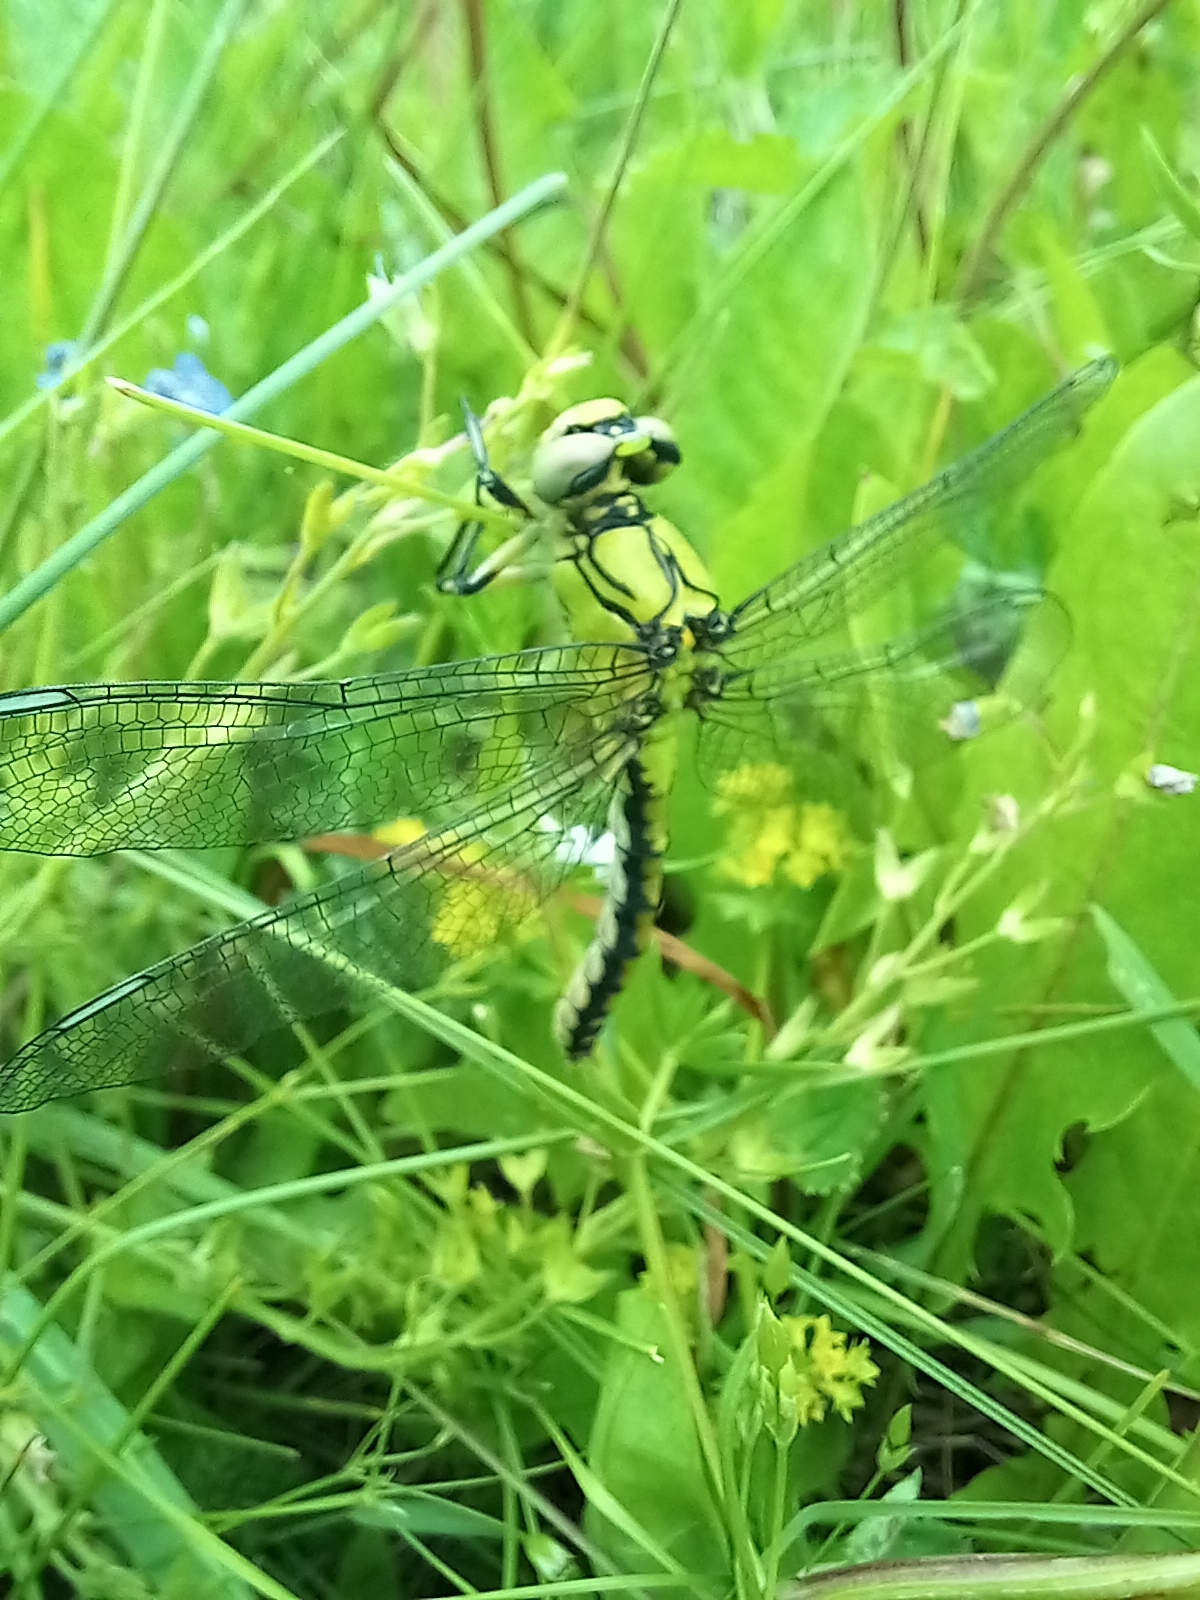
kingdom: Animalia
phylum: Arthropoda
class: Insecta
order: Odonata
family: Gomphidae
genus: Ophiogomphus
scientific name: Ophiogomphus cecilia
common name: Green snaketail
